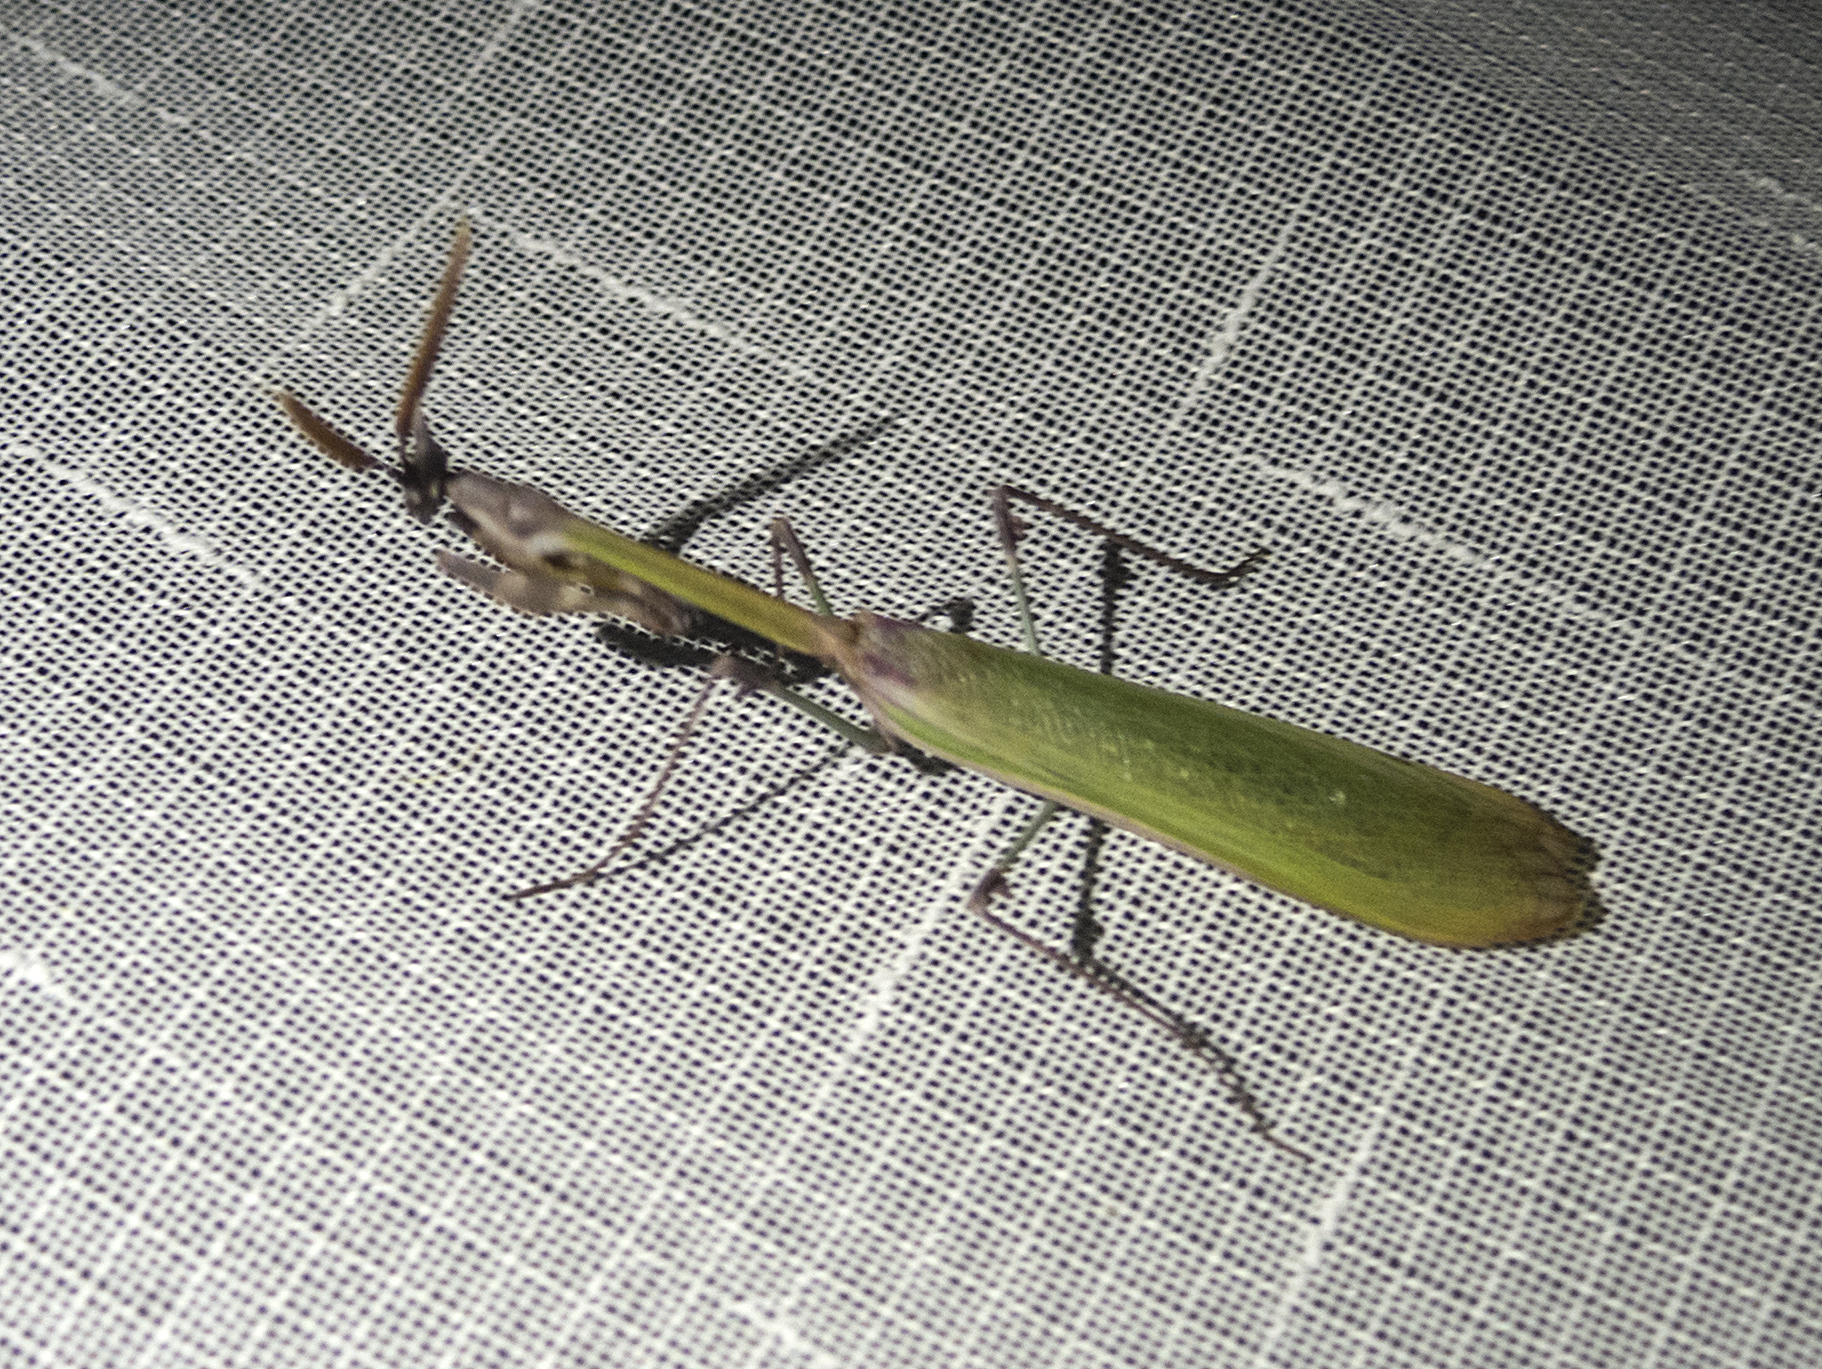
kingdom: Animalia
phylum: Arthropoda
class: Insecta
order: Mantodea
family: Empusidae
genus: Empusa
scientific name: Empusa fasciata
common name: Devil's mare
